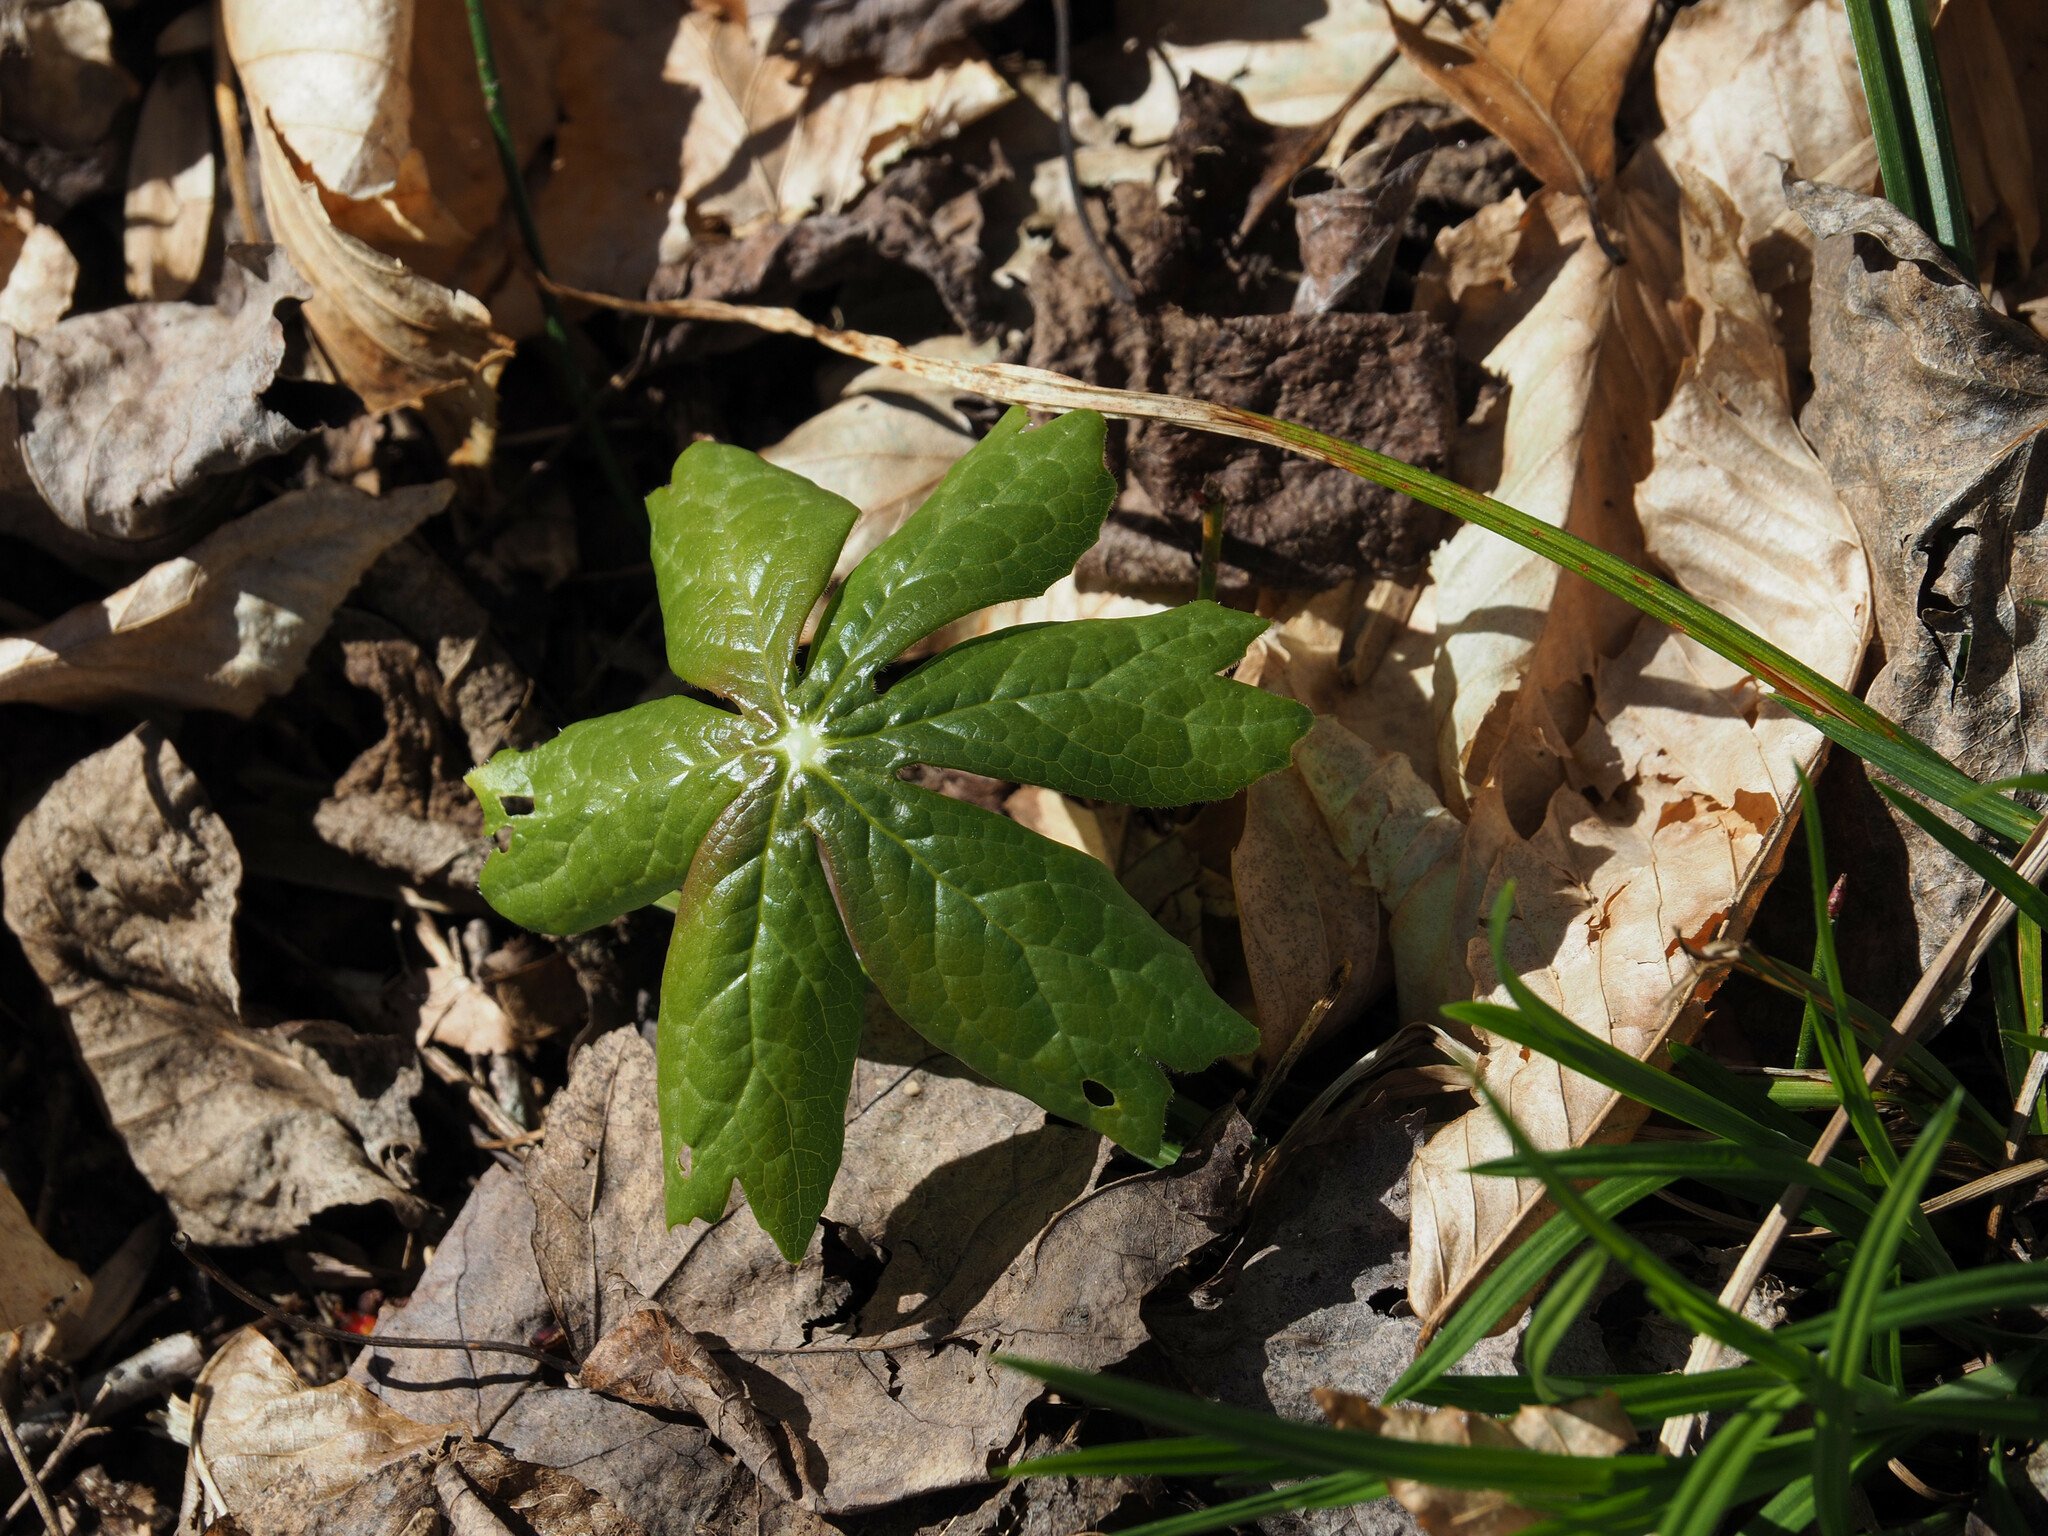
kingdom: Plantae
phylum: Tracheophyta
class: Magnoliopsida
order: Ranunculales
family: Berberidaceae
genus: Podophyllum
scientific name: Podophyllum peltatum
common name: Wild mandrake
